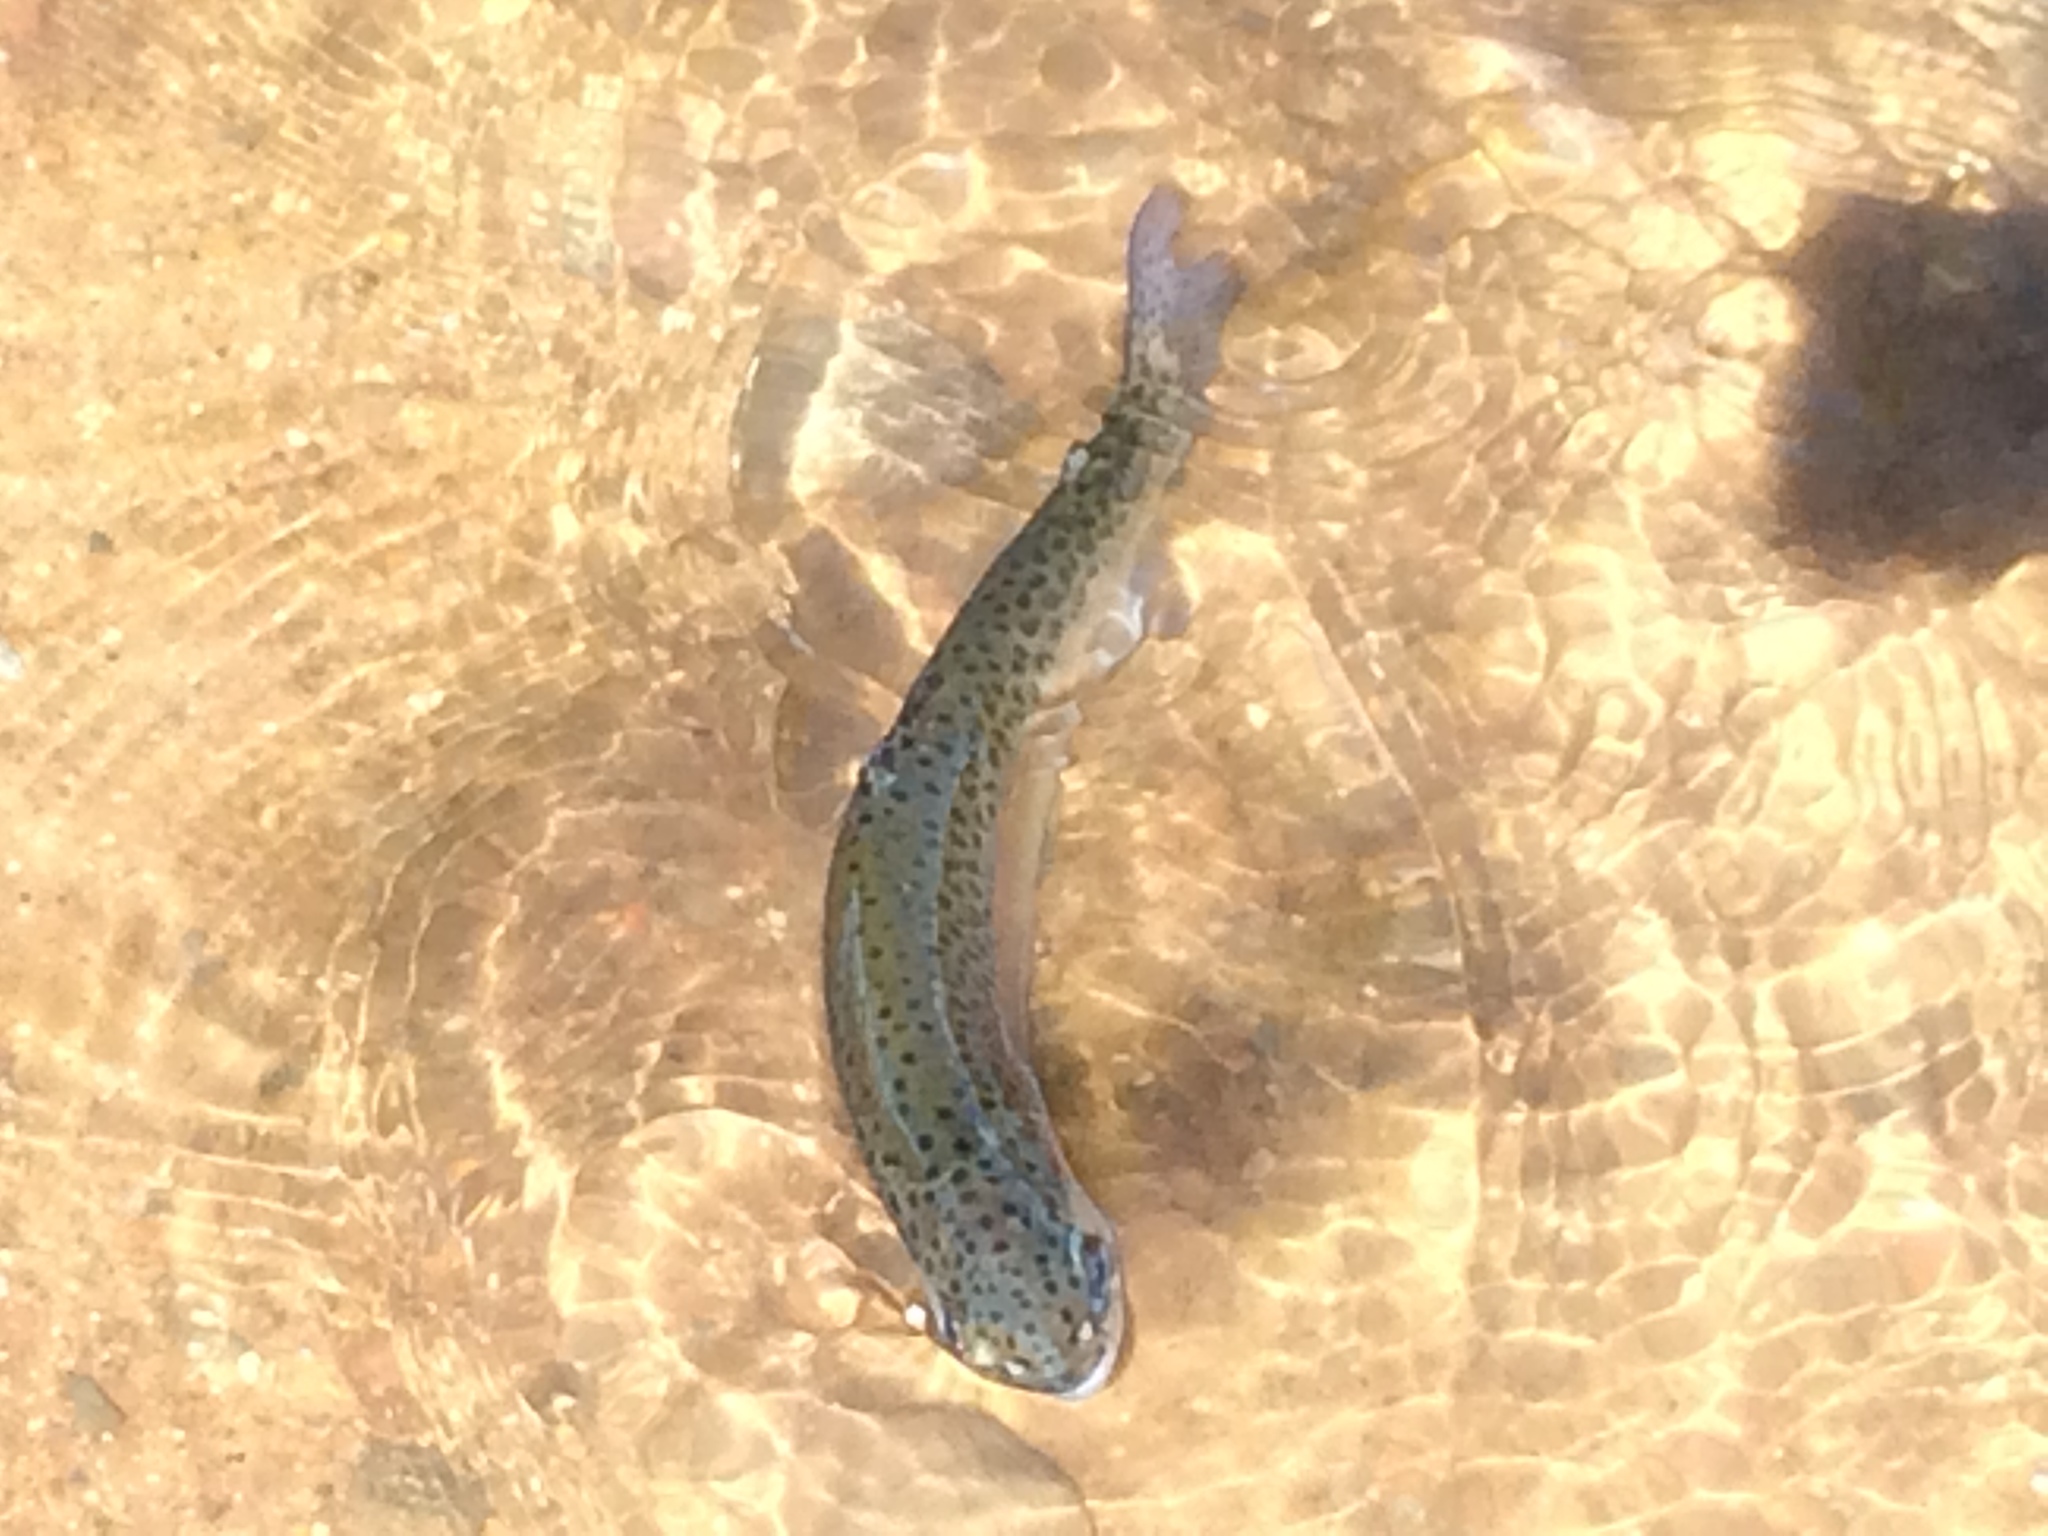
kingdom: Animalia
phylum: Chordata
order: Salmoniformes
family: Salmonidae
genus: Oncorhynchus
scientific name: Oncorhynchus mykiss
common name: Rainbow trout
